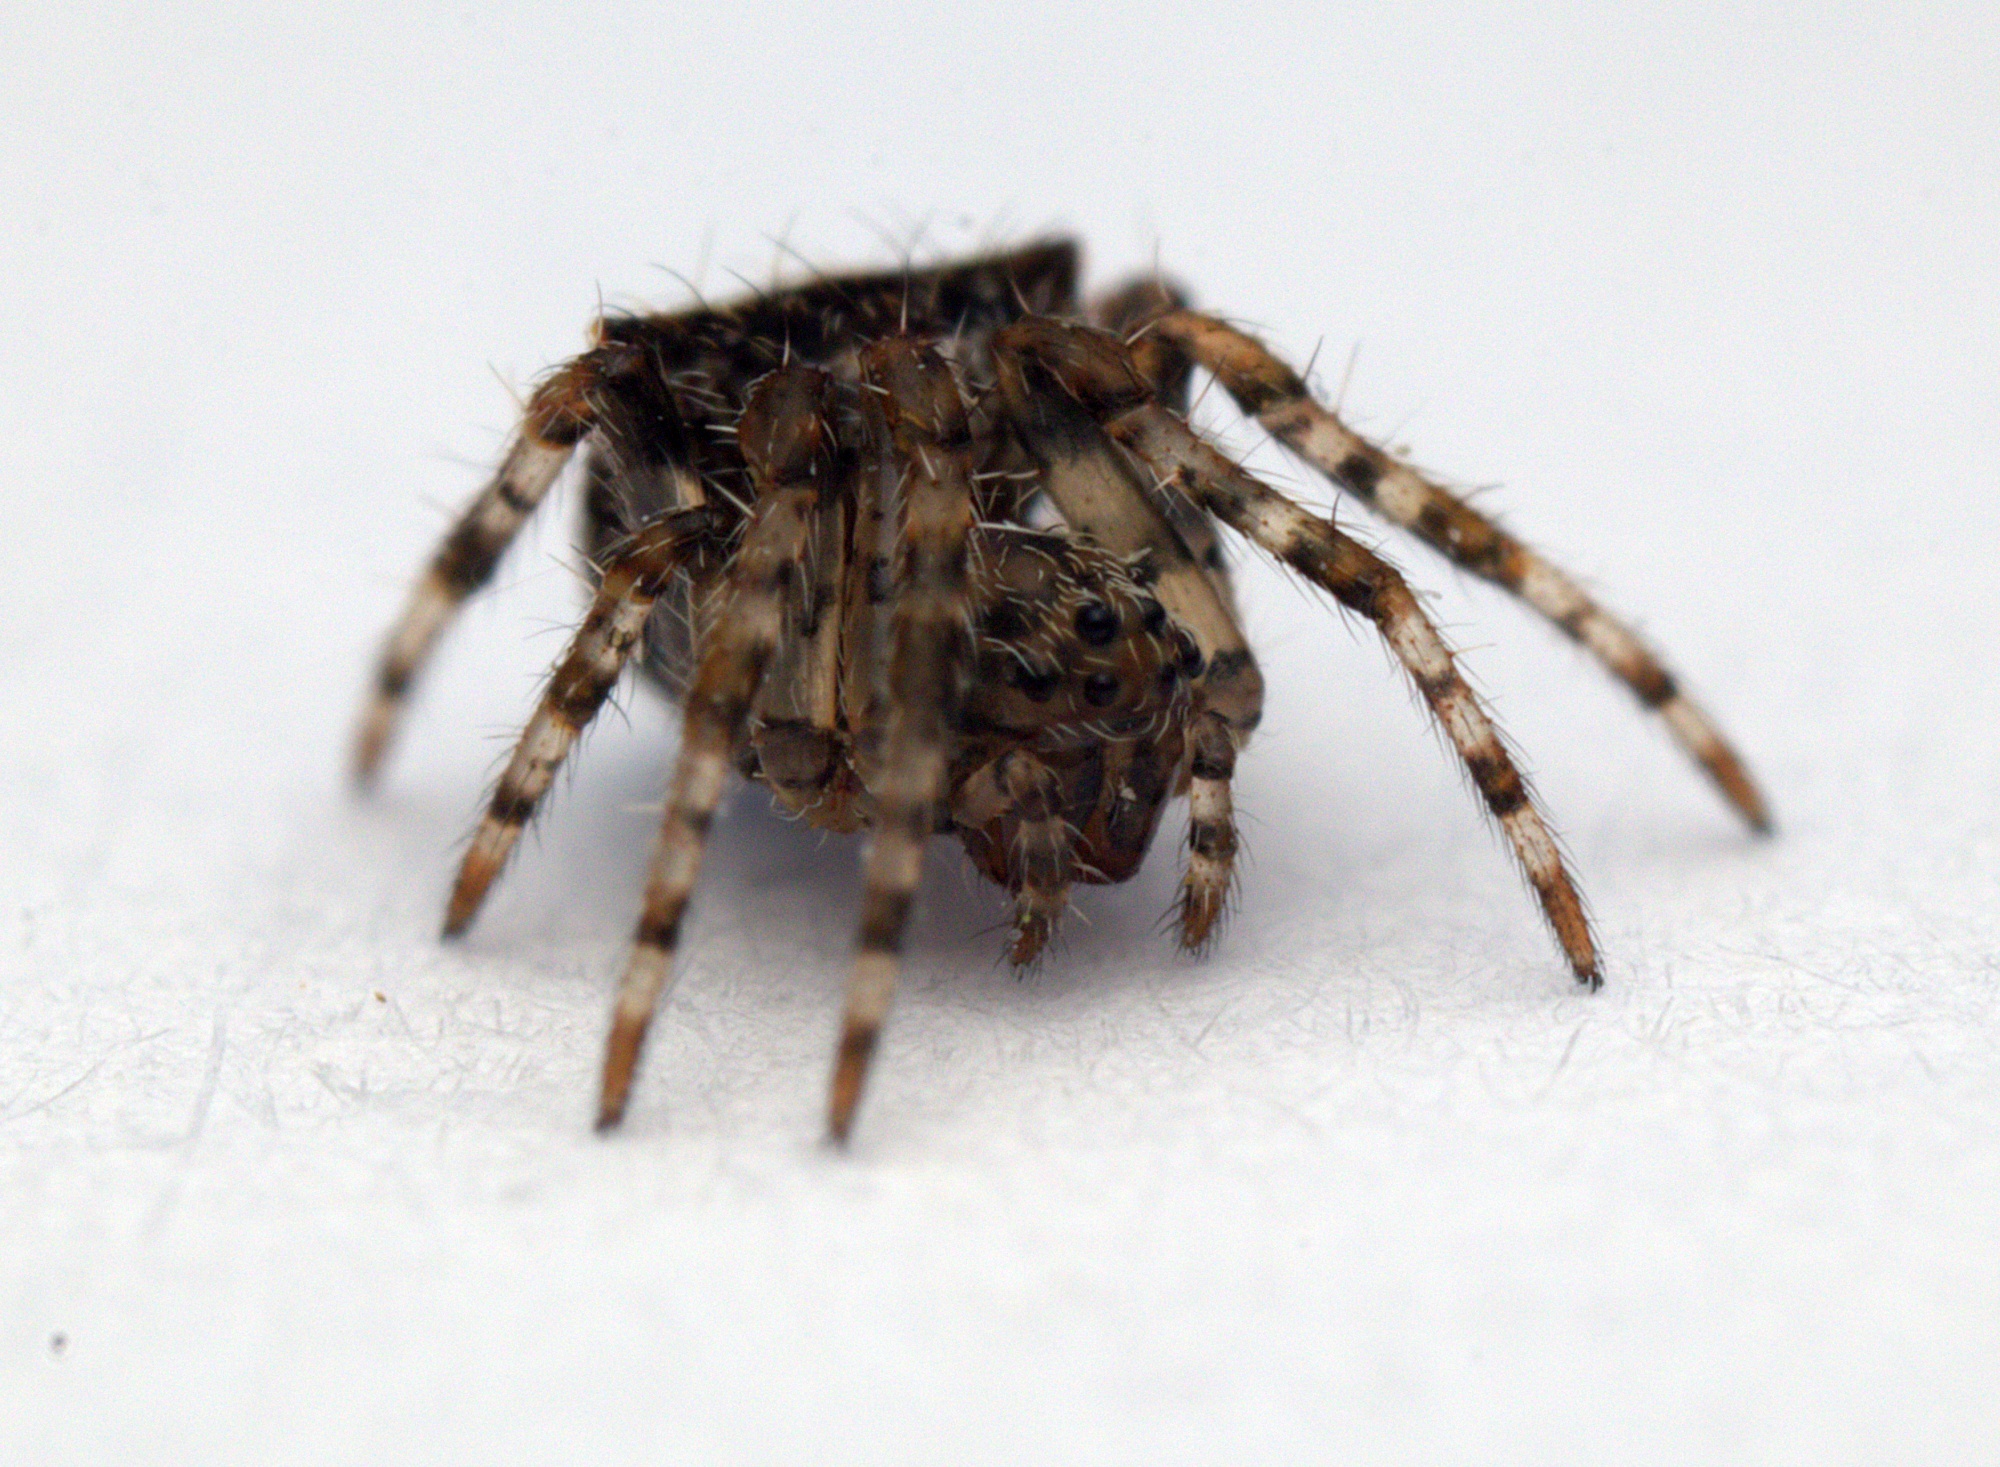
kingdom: Animalia
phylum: Arthropoda
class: Arachnida
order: Araneae
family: Araneidae
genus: Novakiella
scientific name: Novakiella trituberculosa
